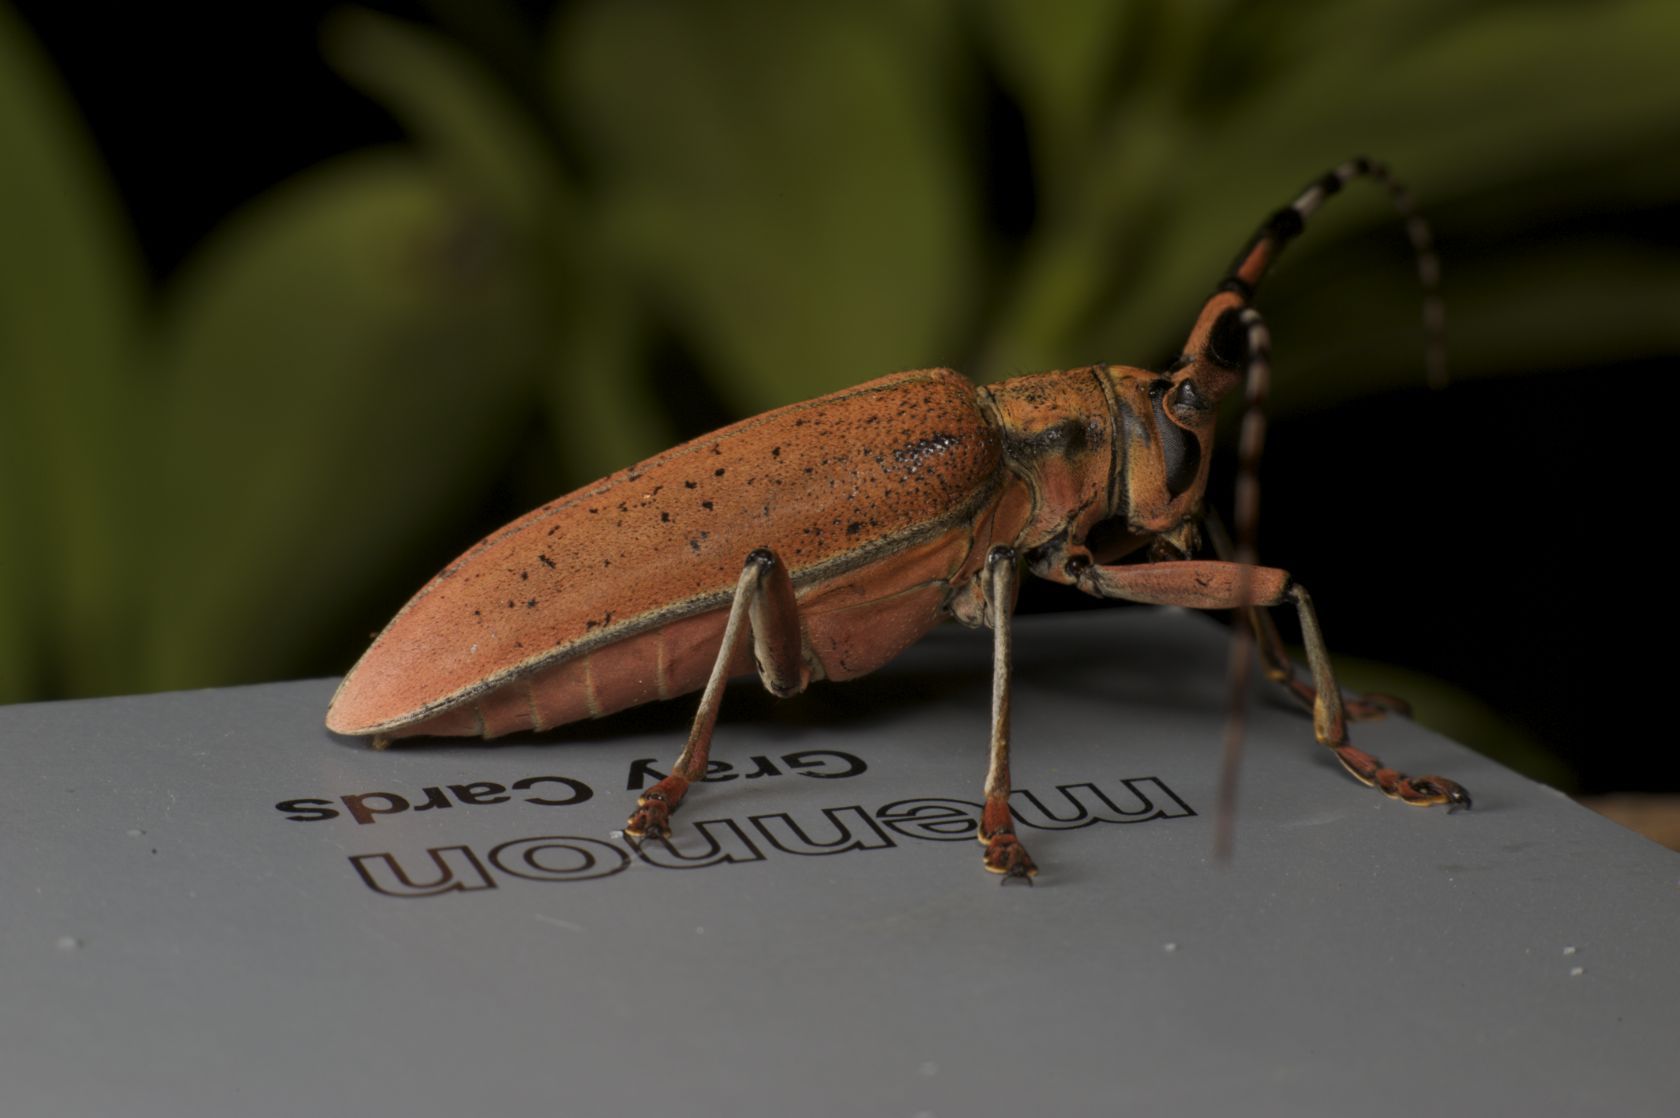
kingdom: Animalia
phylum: Arthropoda
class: Insecta
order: Coleoptera
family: Cerambycidae
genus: Mimothestus
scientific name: Mimothestus annulicornis
